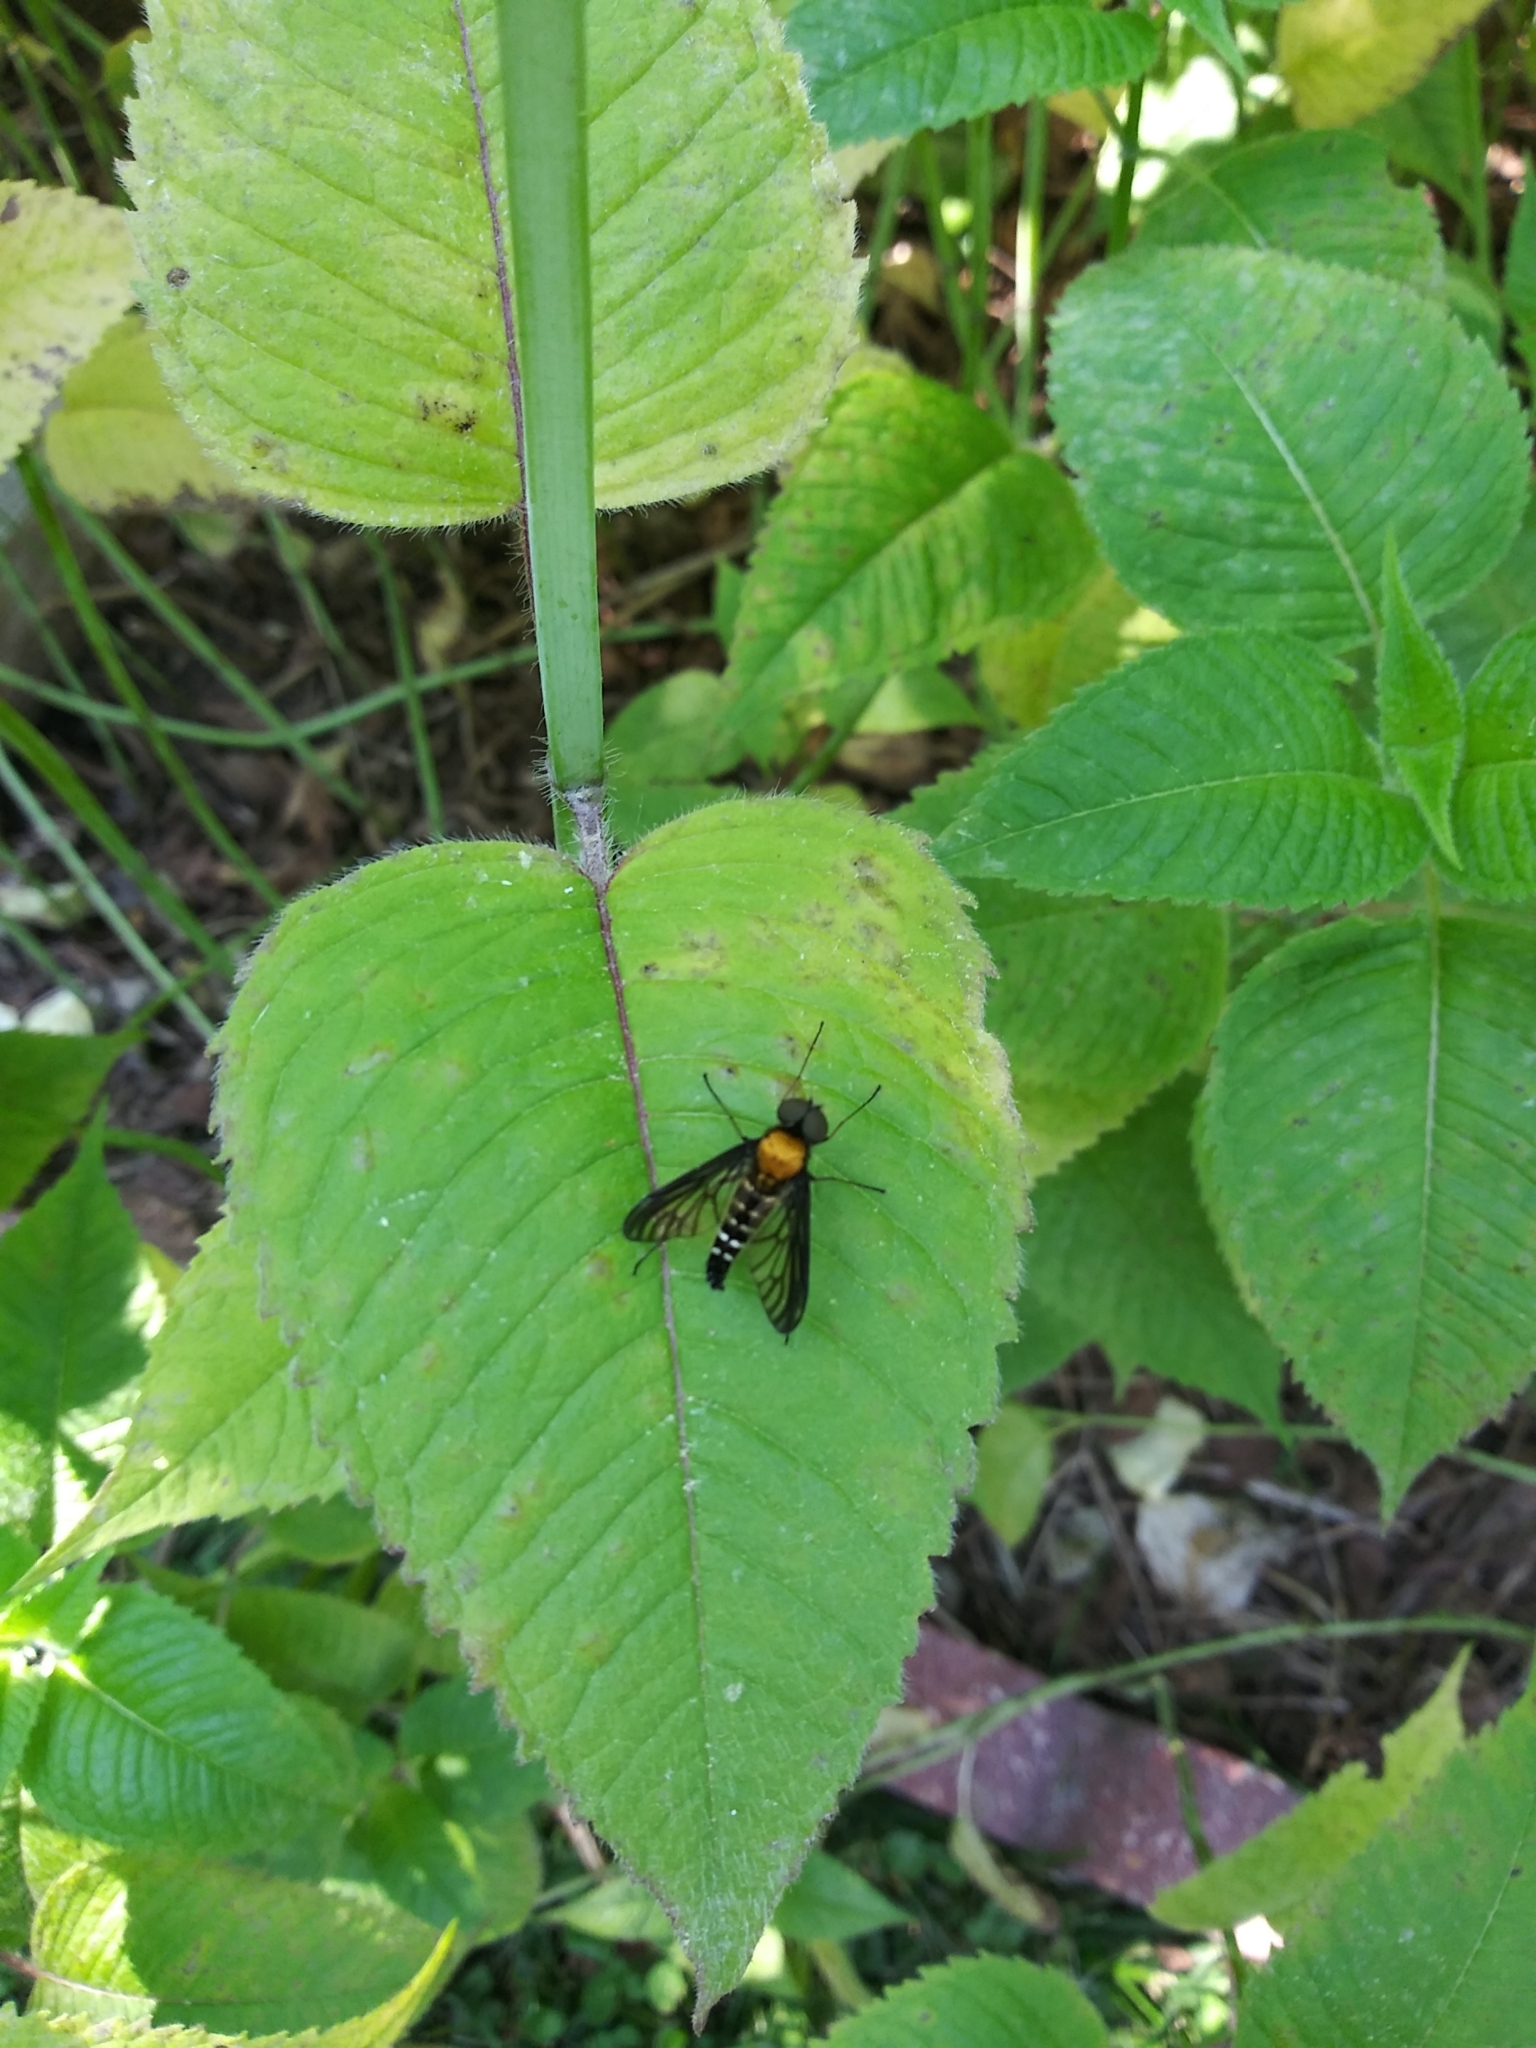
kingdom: Animalia
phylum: Arthropoda
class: Insecta
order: Diptera
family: Rhagionidae
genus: Chrysopilus
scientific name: Chrysopilus thoracicus
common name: Golden-backed snipe fly
